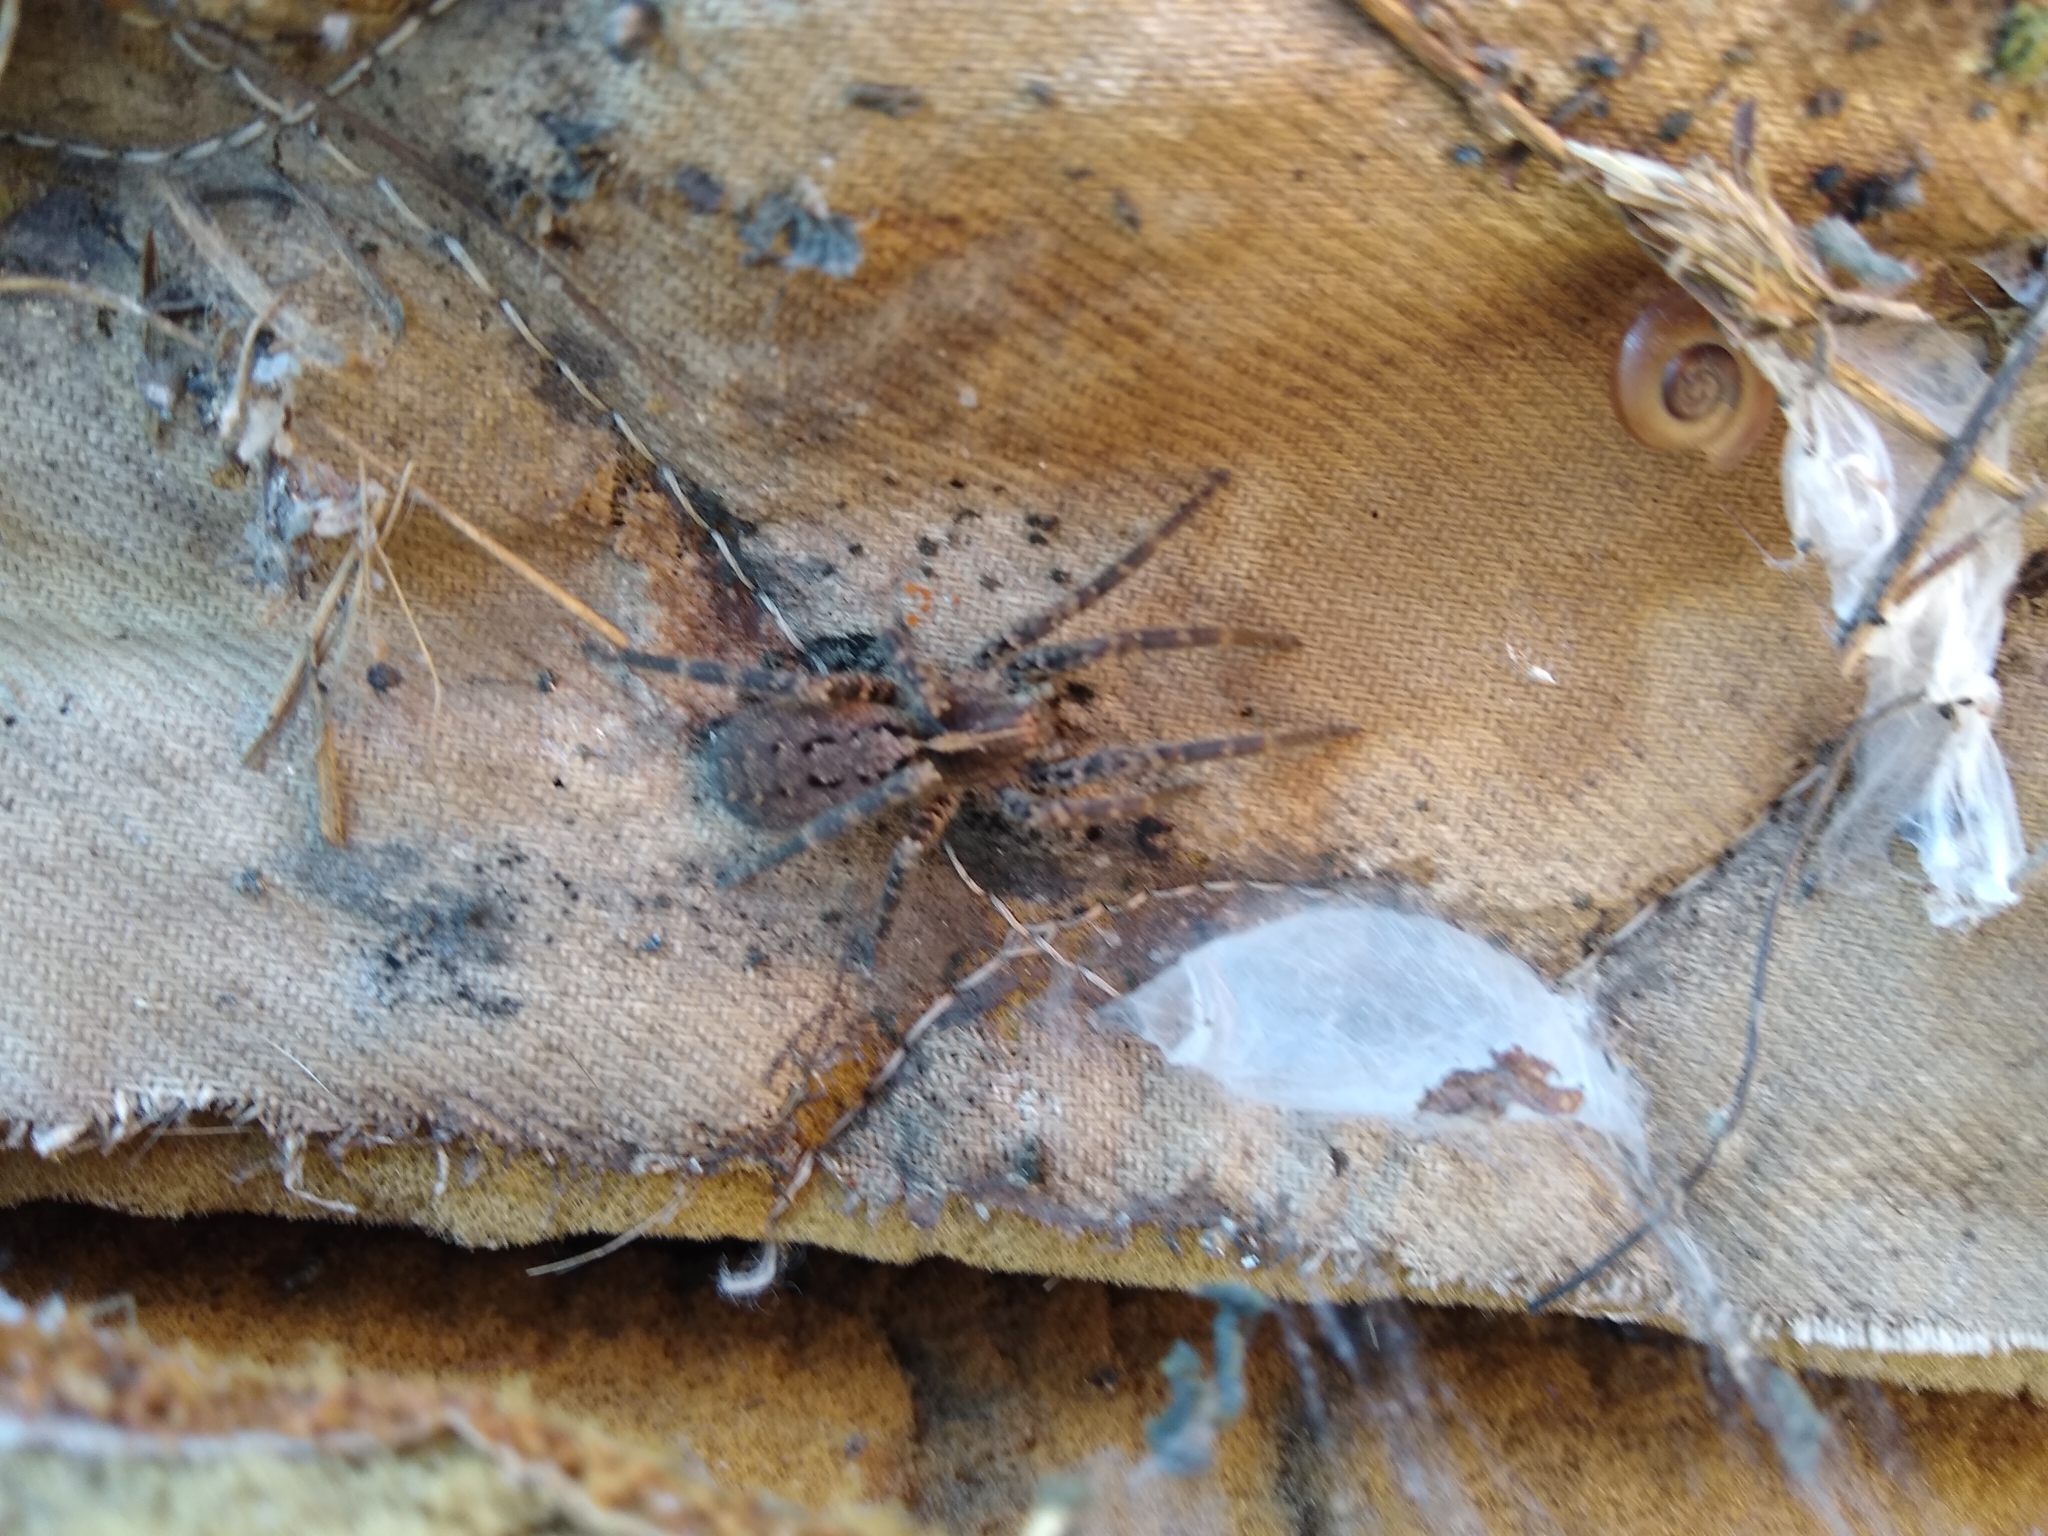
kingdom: Animalia
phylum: Arthropoda
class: Arachnida
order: Araneae
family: Ctenidae
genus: Parabatinga
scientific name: Parabatinga brevipes
